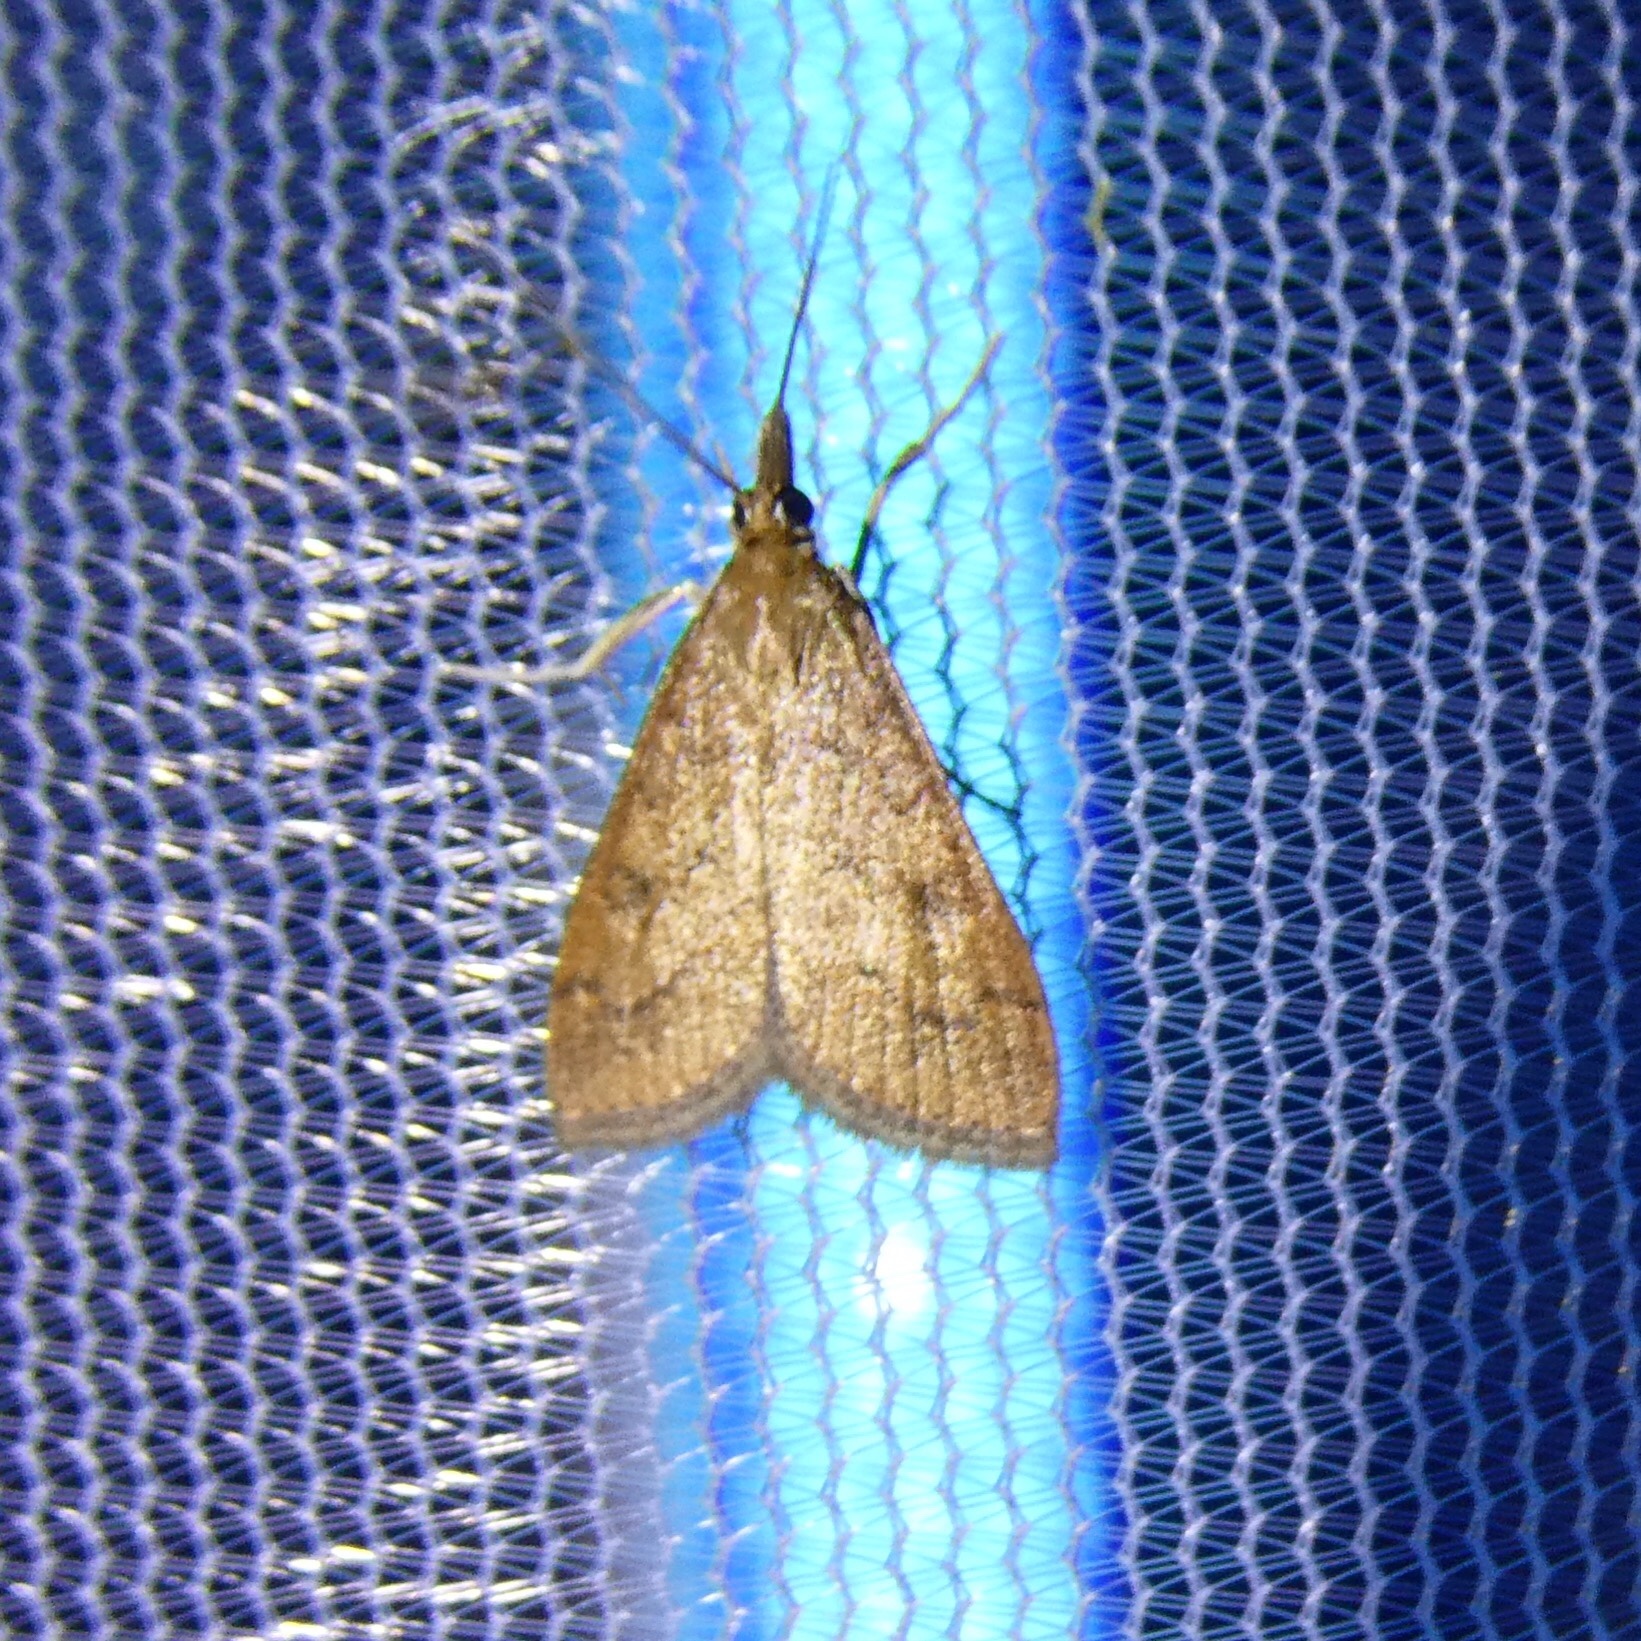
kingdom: Animalia
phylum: Arthropoda
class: Insecta
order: Lepidoptera
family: Crambidae
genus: Udea
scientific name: Udea rubigalis
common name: Celery leaftier moth
